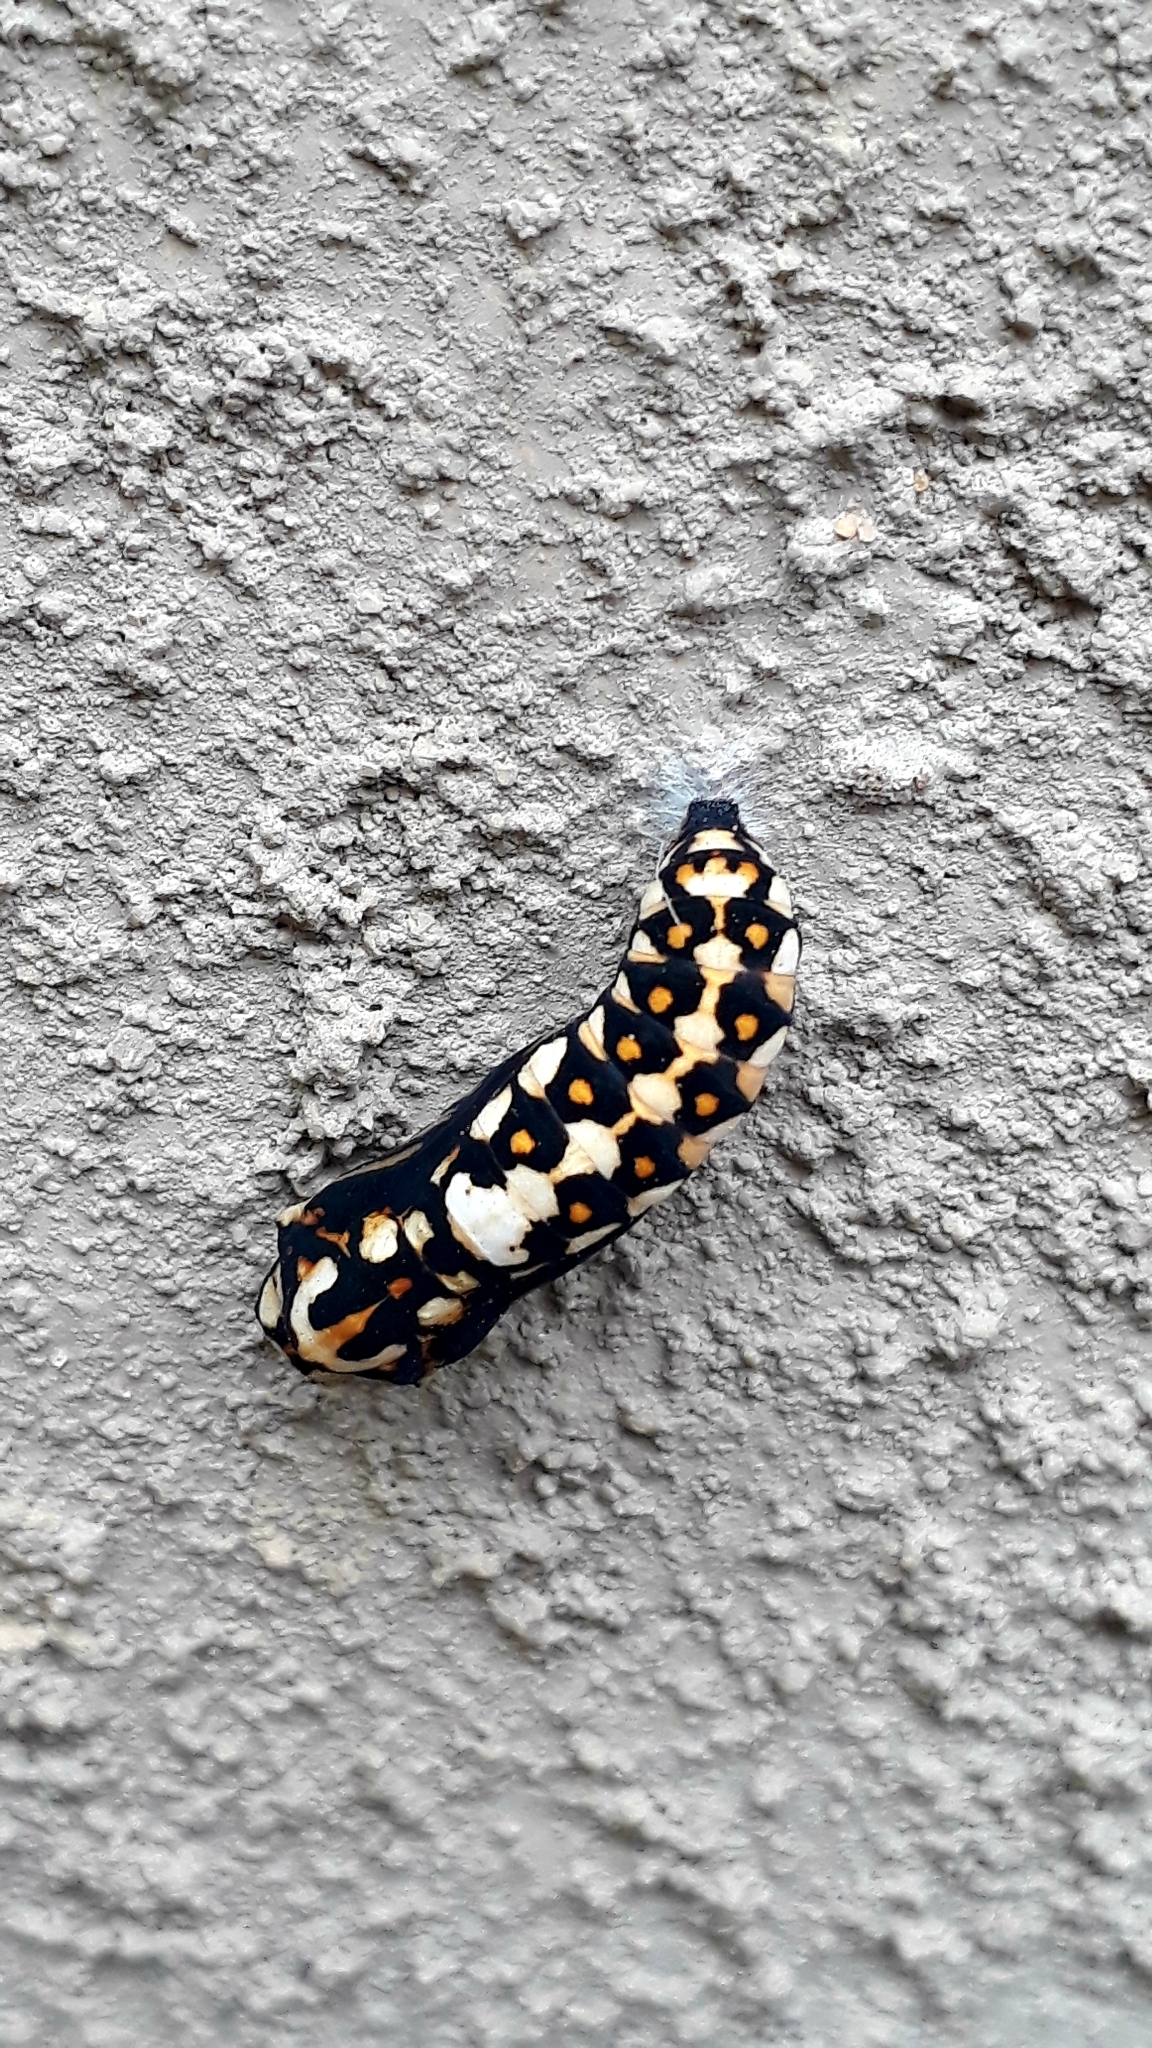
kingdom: Animalia
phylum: Arthropoda
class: Insecta
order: Lepidoptera
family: Nymphalidae
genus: Acraea
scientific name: Acraea horta
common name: Garden acraea
